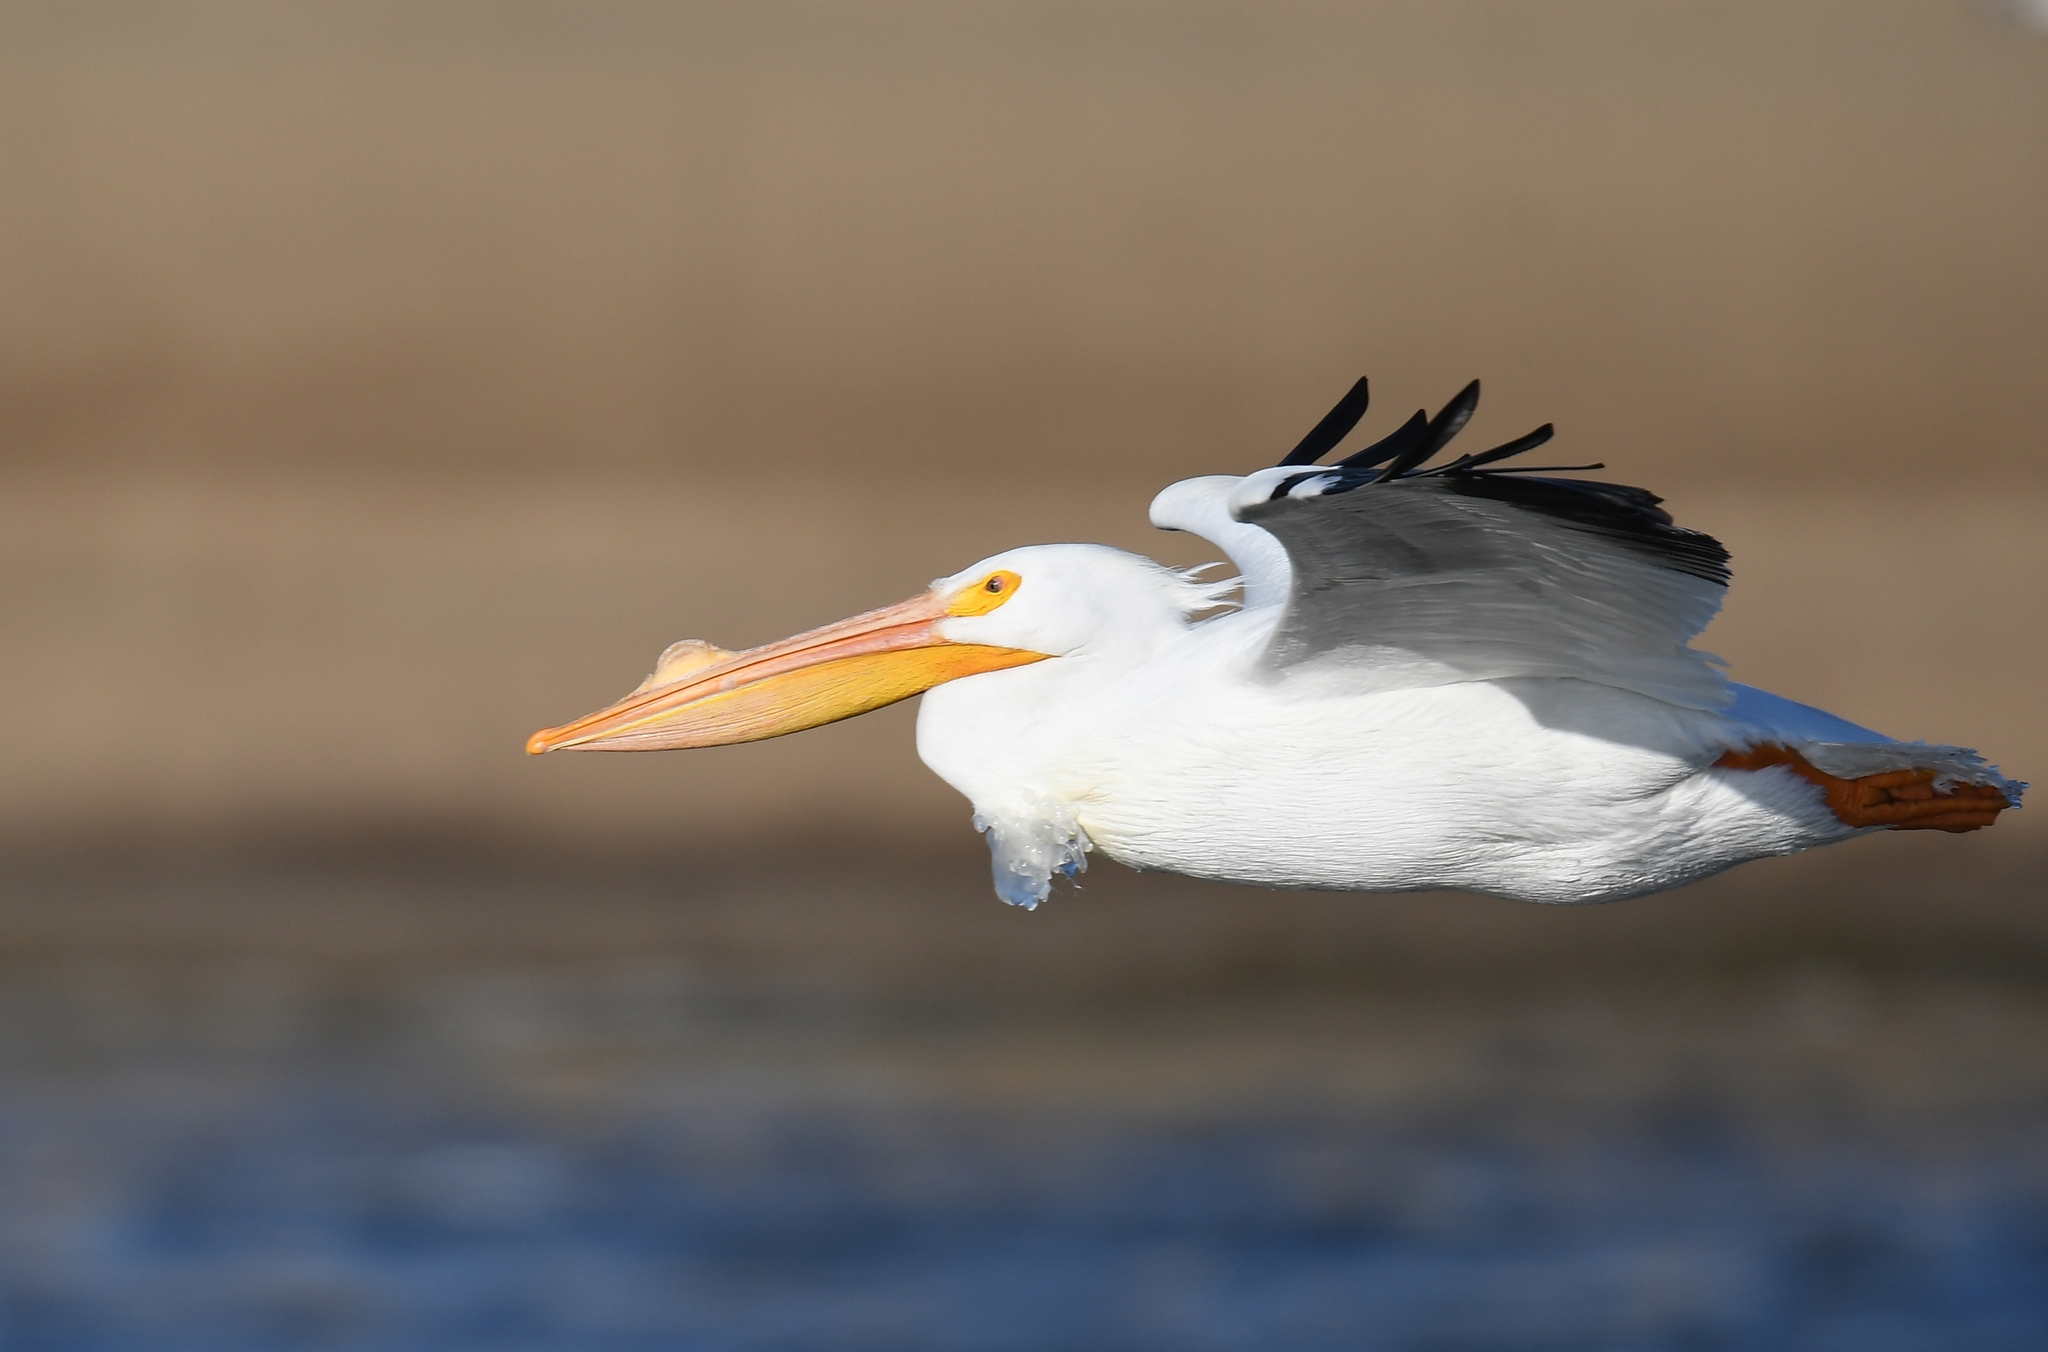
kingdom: Animalia
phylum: Chordata
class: Aves
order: Pelecaniformes
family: Pelecanidae
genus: Pelecanus
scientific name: Pelecanus erythrorhynchos
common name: American white pelican
